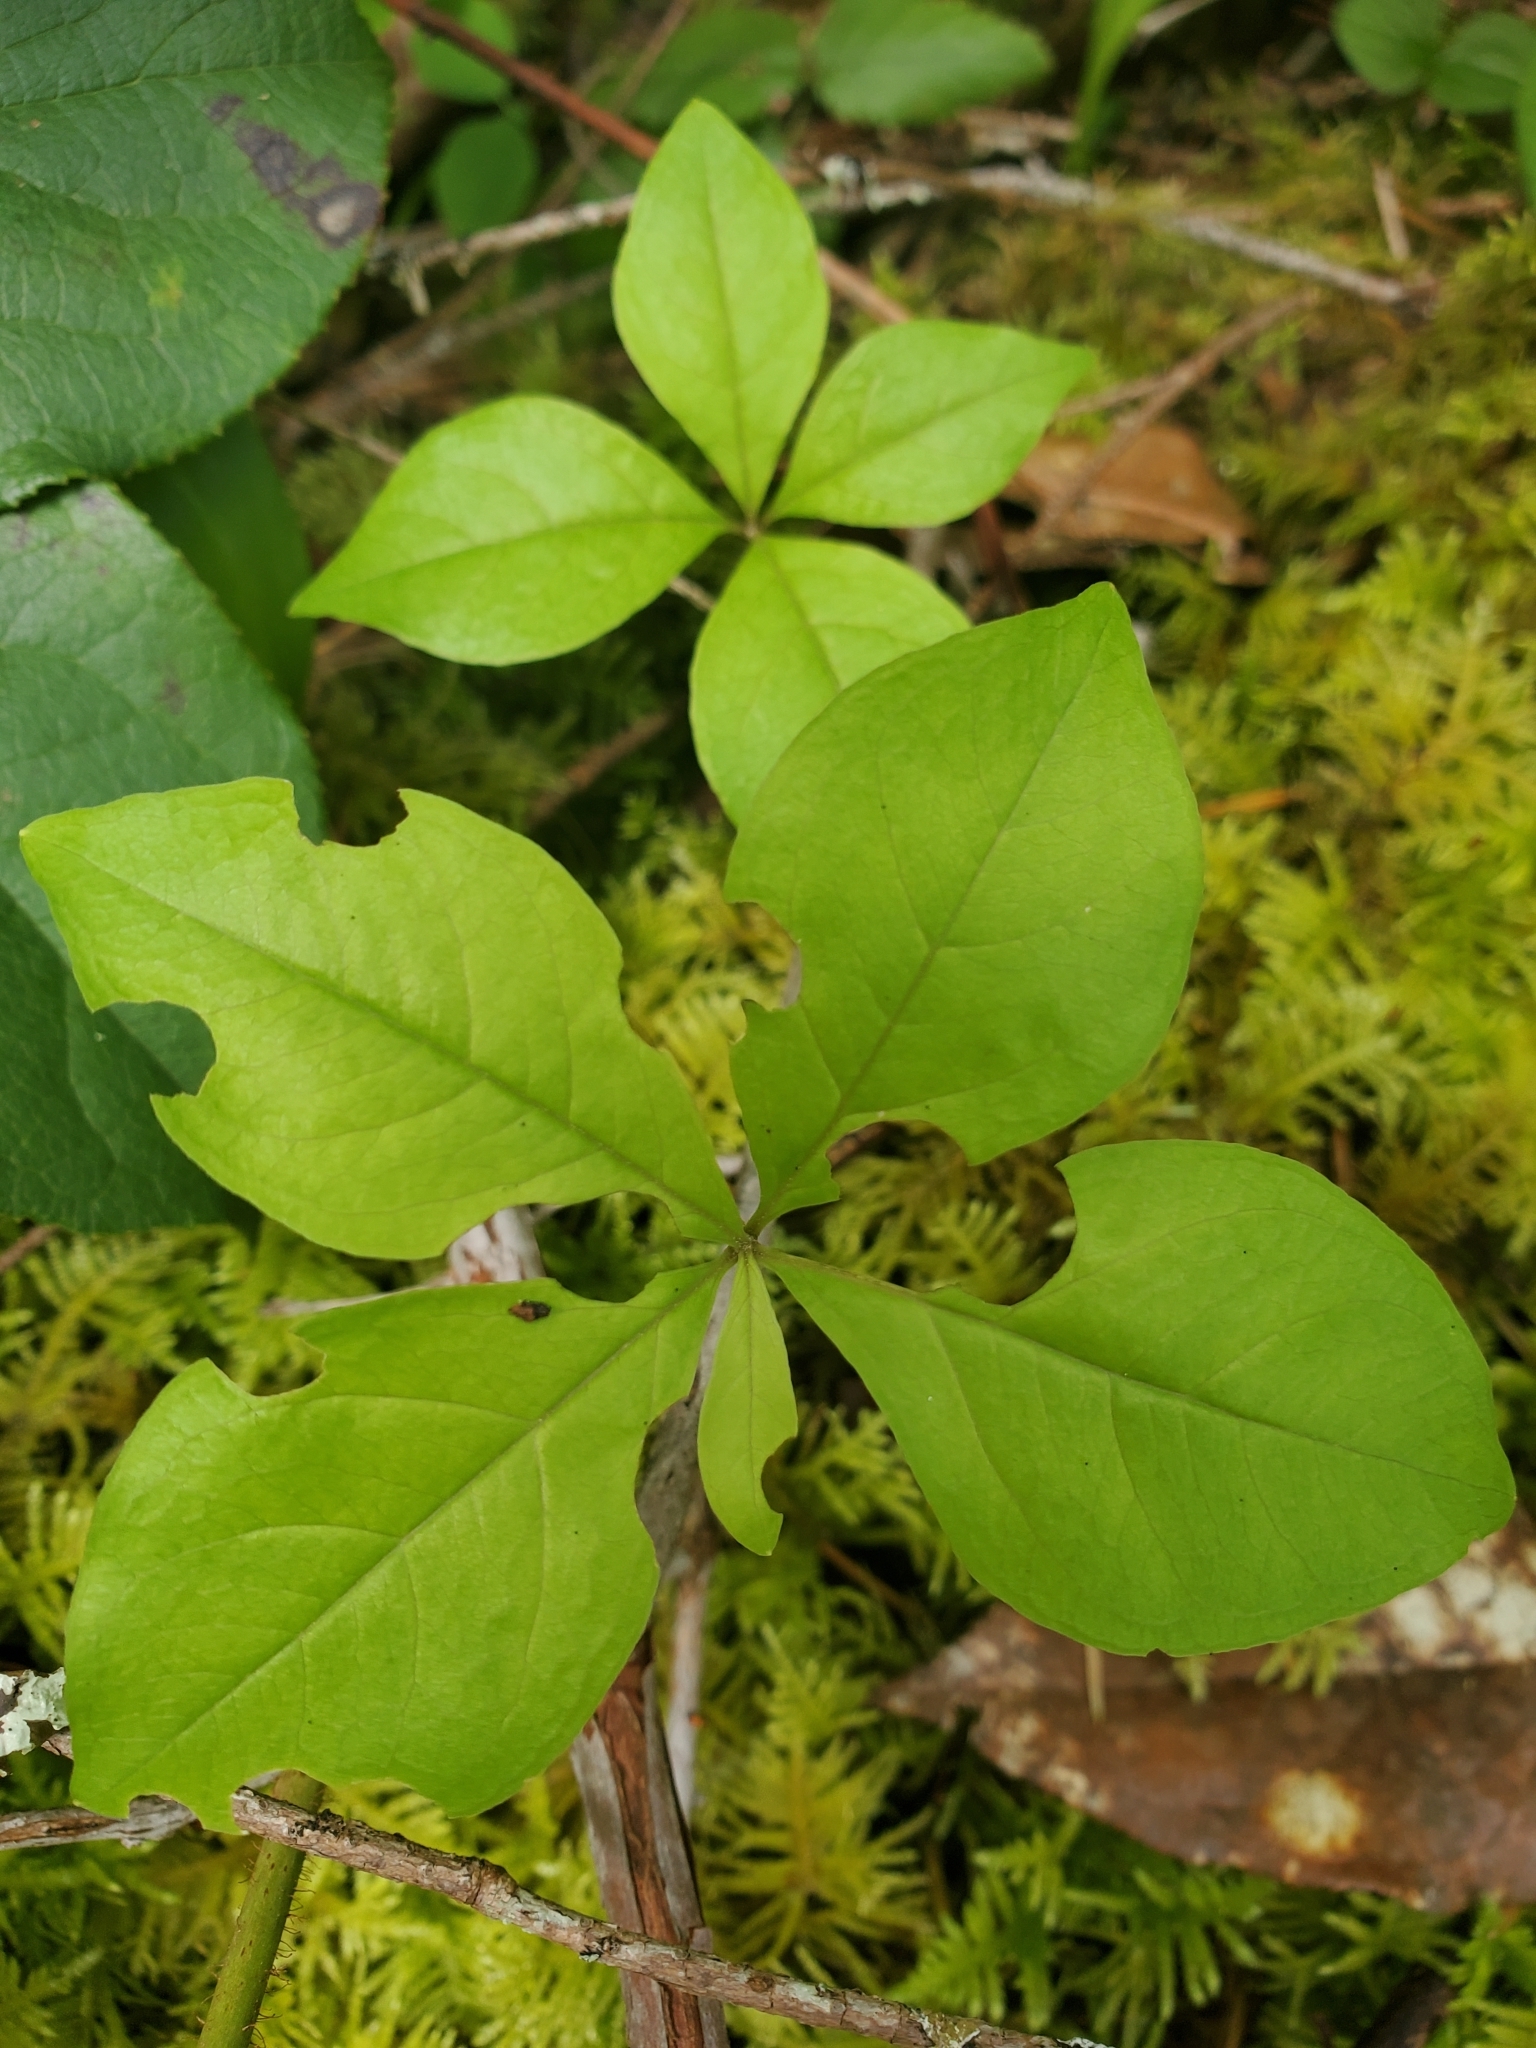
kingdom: Plantae
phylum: Tracheophyta
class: Magnoliopsida
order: Ericales
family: Primulaceae
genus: Lysimachia
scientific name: Lysimachia latifolia
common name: Pacific starflower
